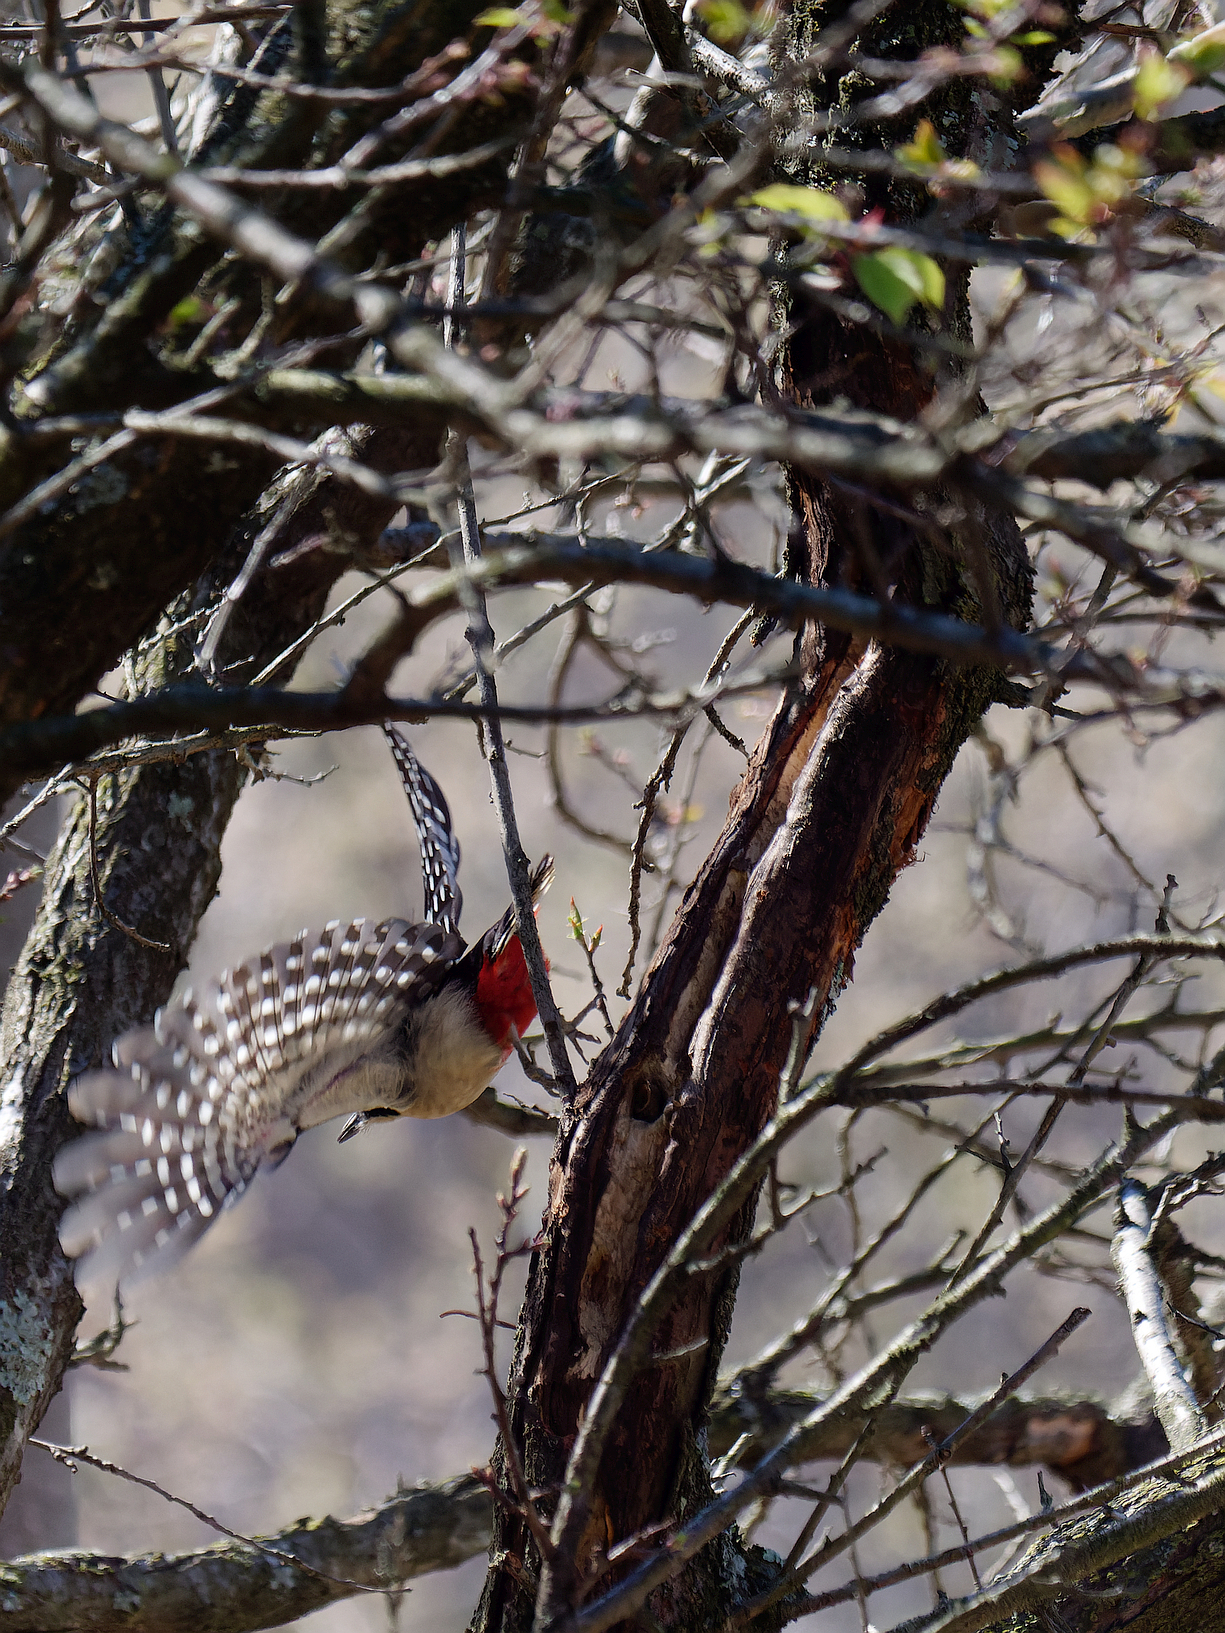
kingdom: Animalia
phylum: Chordata
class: Aves
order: Piciformes
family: Picidae
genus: Dendrocopos
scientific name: Dendrocopos major
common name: Great spotted woodpecker
